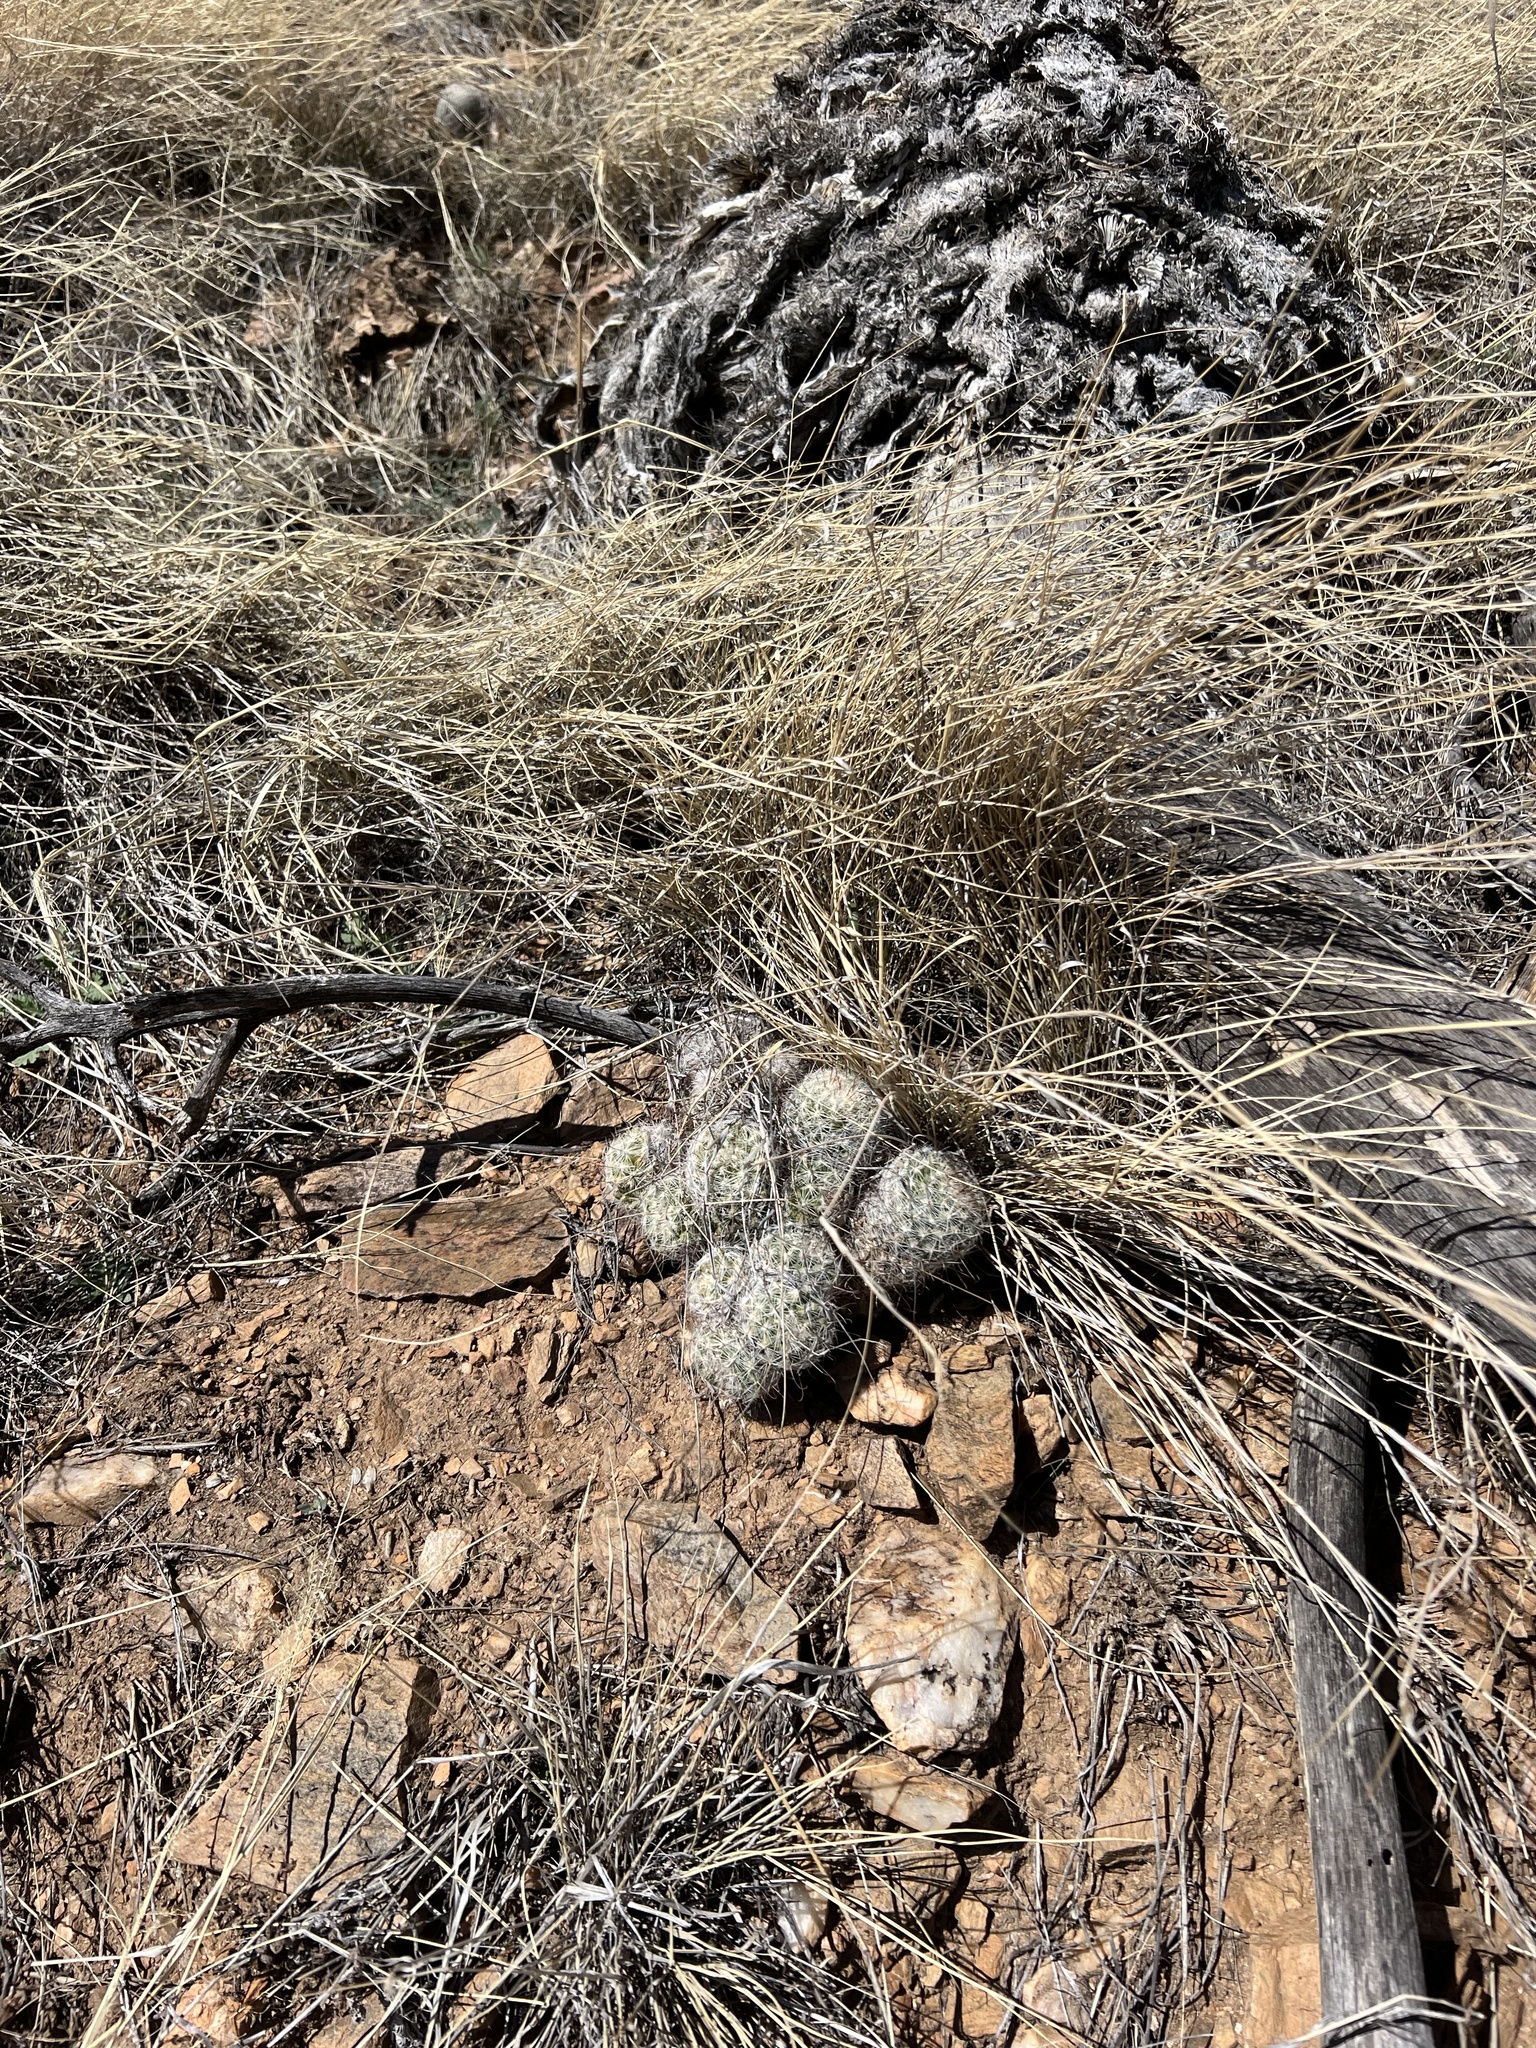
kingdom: Plantae
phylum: Tracheophyta
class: Magnoliopsida
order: Caryophyllales
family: Cactaceae
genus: Cochemiea
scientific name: Cochemiea grahamii
